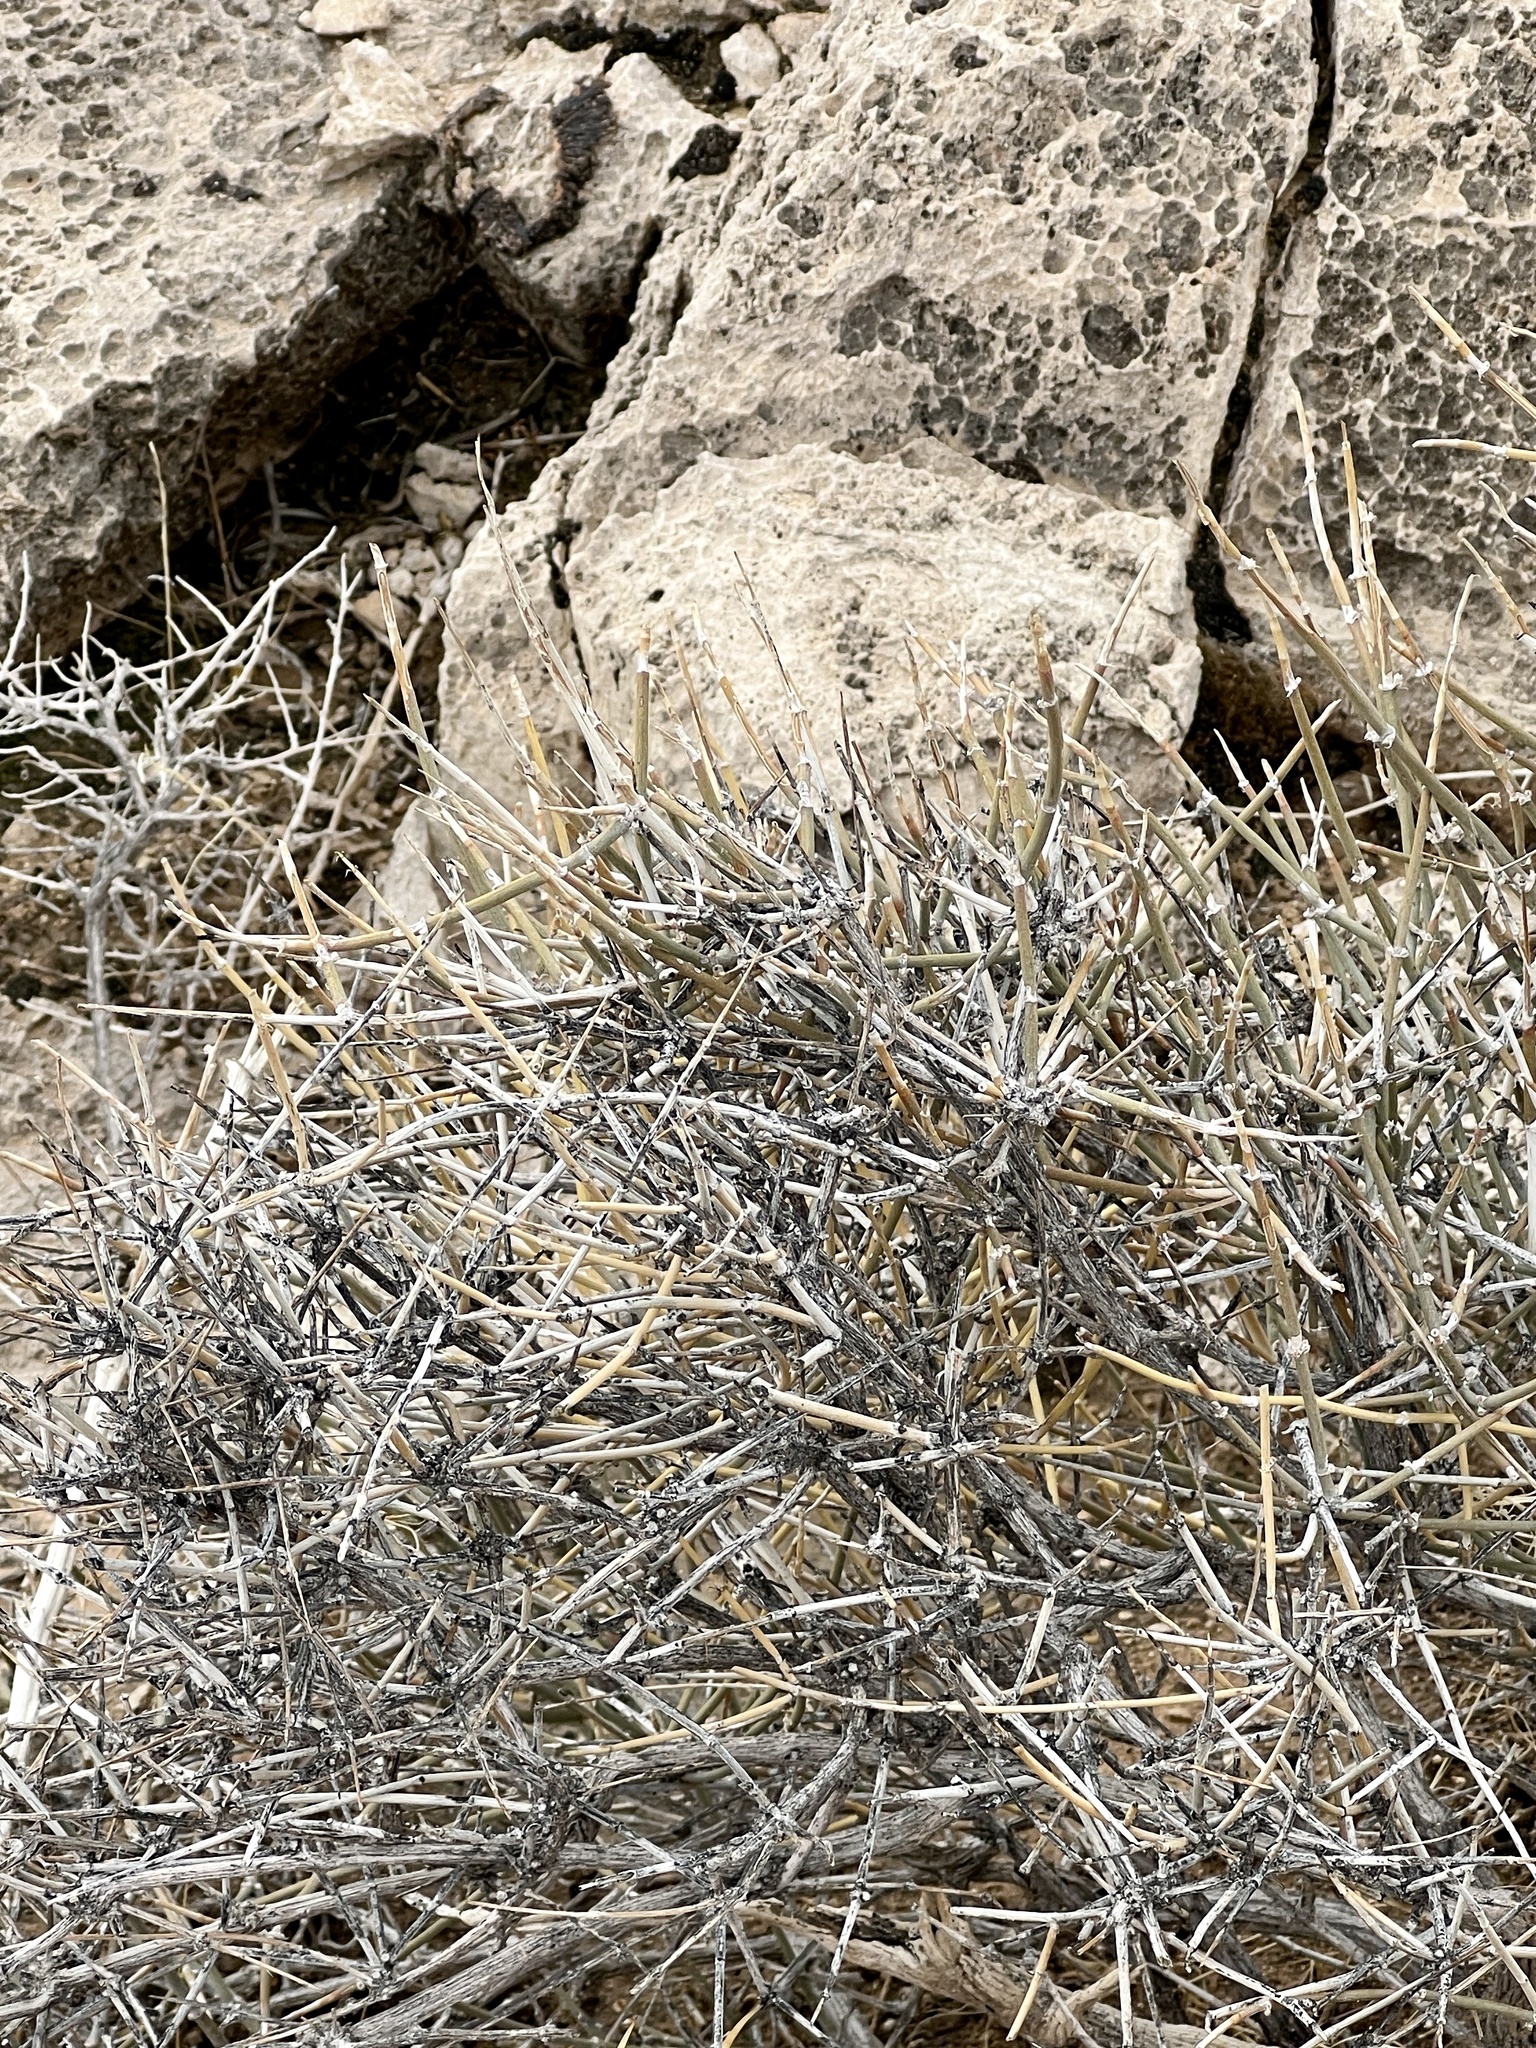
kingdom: Plantae
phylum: Tracheophyta
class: Gnetopsida
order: Ephedrales
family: Ephedraceae
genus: Ephedra
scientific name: Ephedra nevadensis
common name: Gray ephedra
